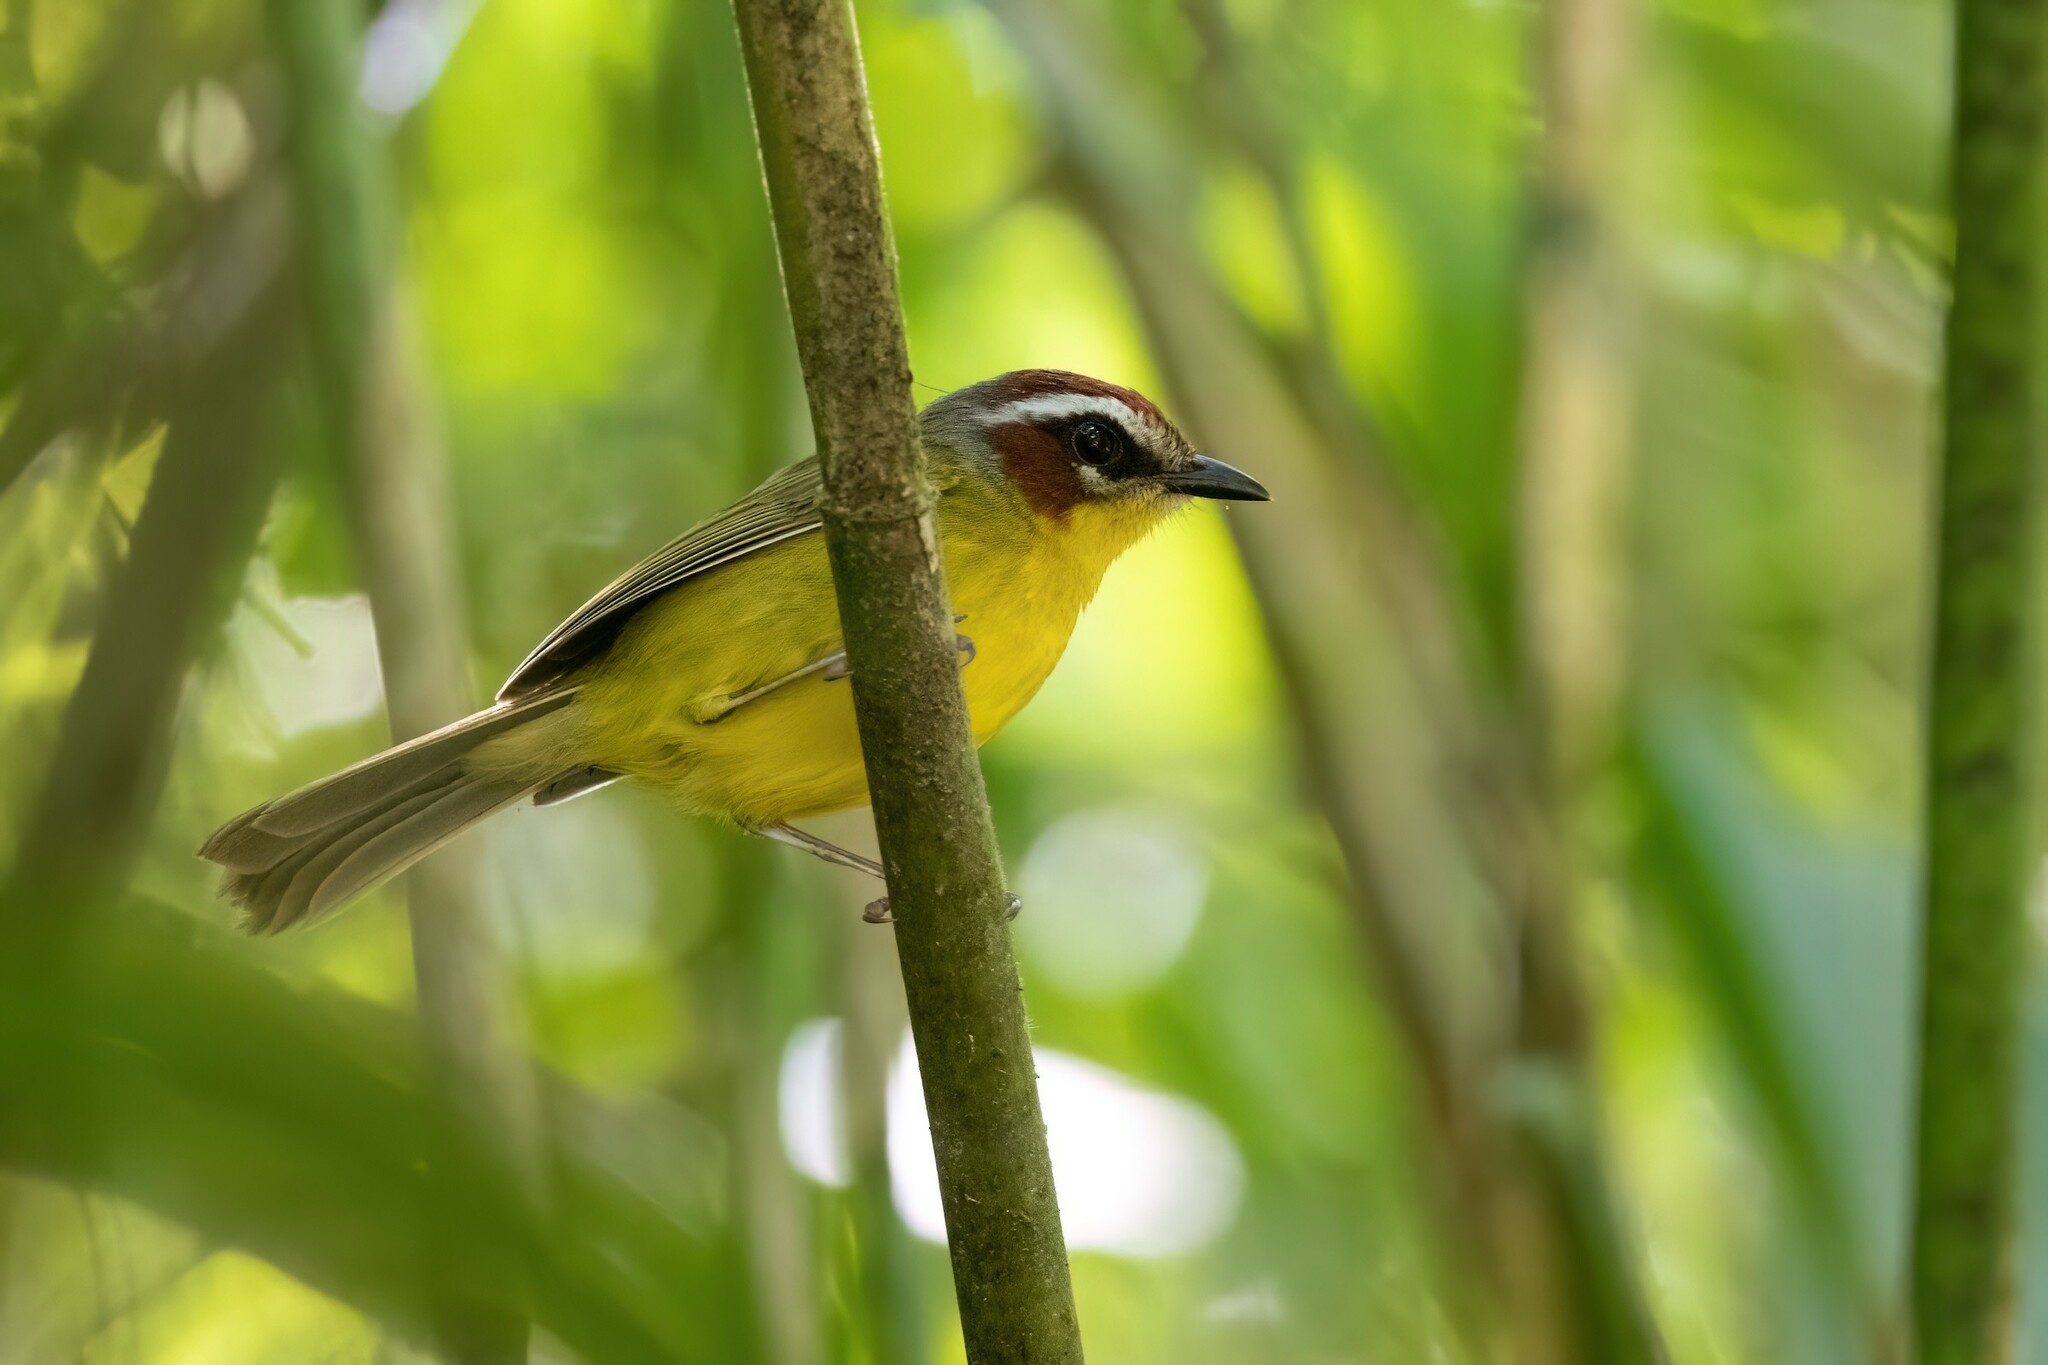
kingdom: Animalia
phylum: Chordata
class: Aves
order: Passeriformes
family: Parulidae
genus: Basileuterus
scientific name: Basileuterus rufifrons
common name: Rufous-capped warbler
